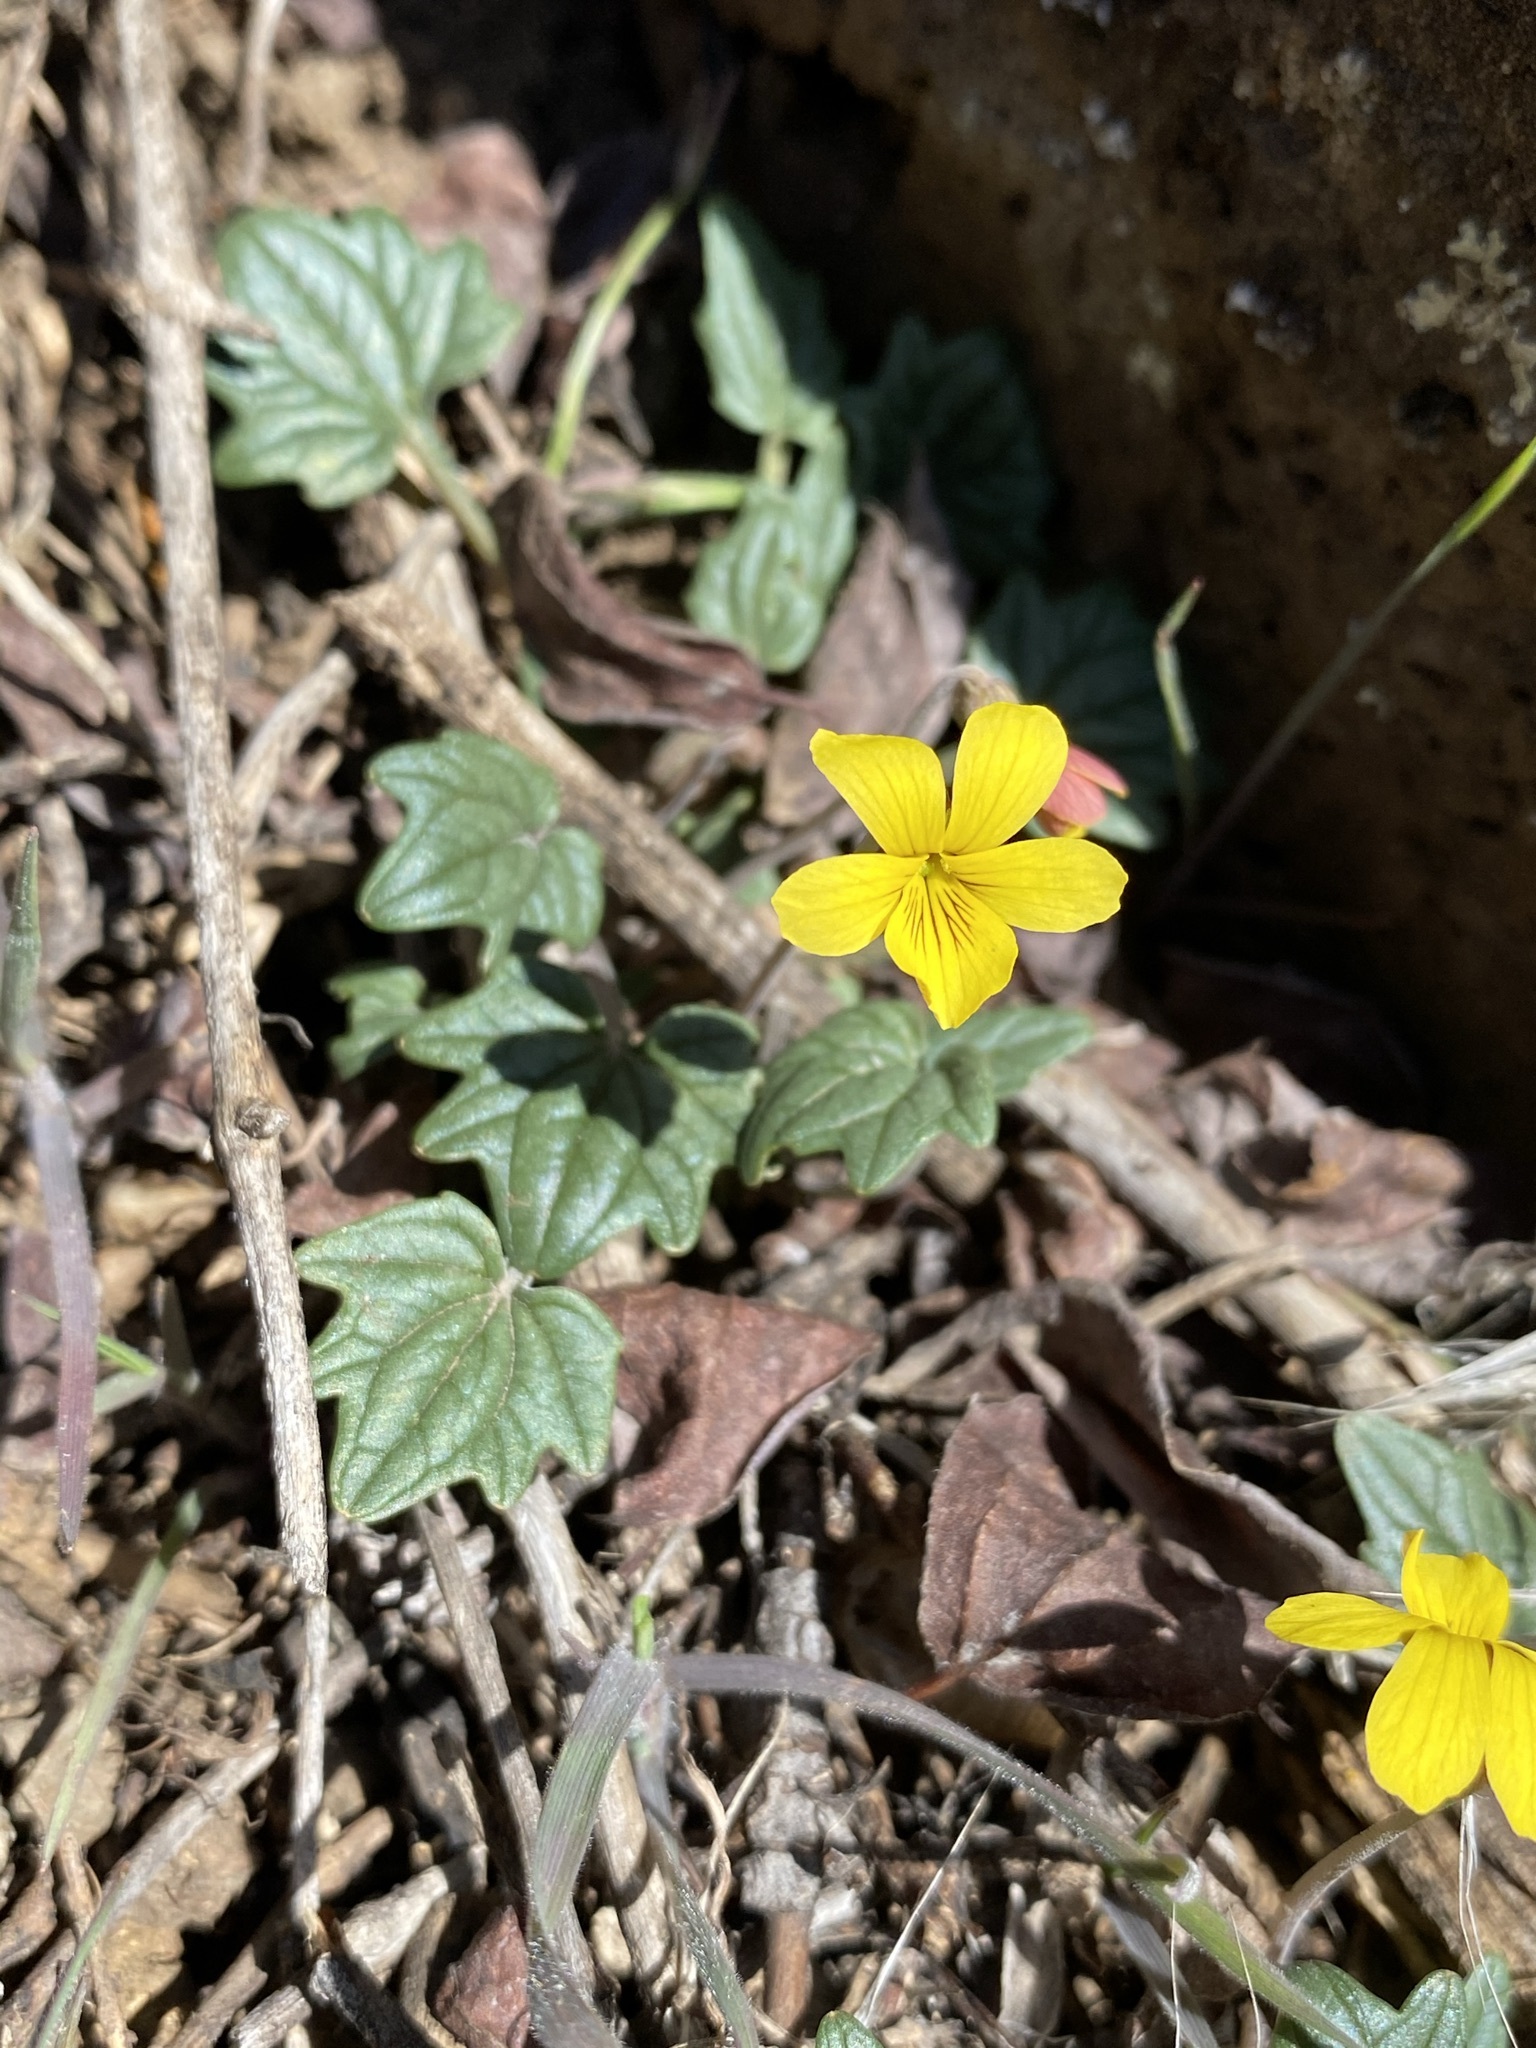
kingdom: Plantae
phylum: Tracheophyta
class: Magnoliopsida
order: Malpighiales
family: Violaceae
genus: Viola
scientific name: Viola purpurea
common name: Pine violet
